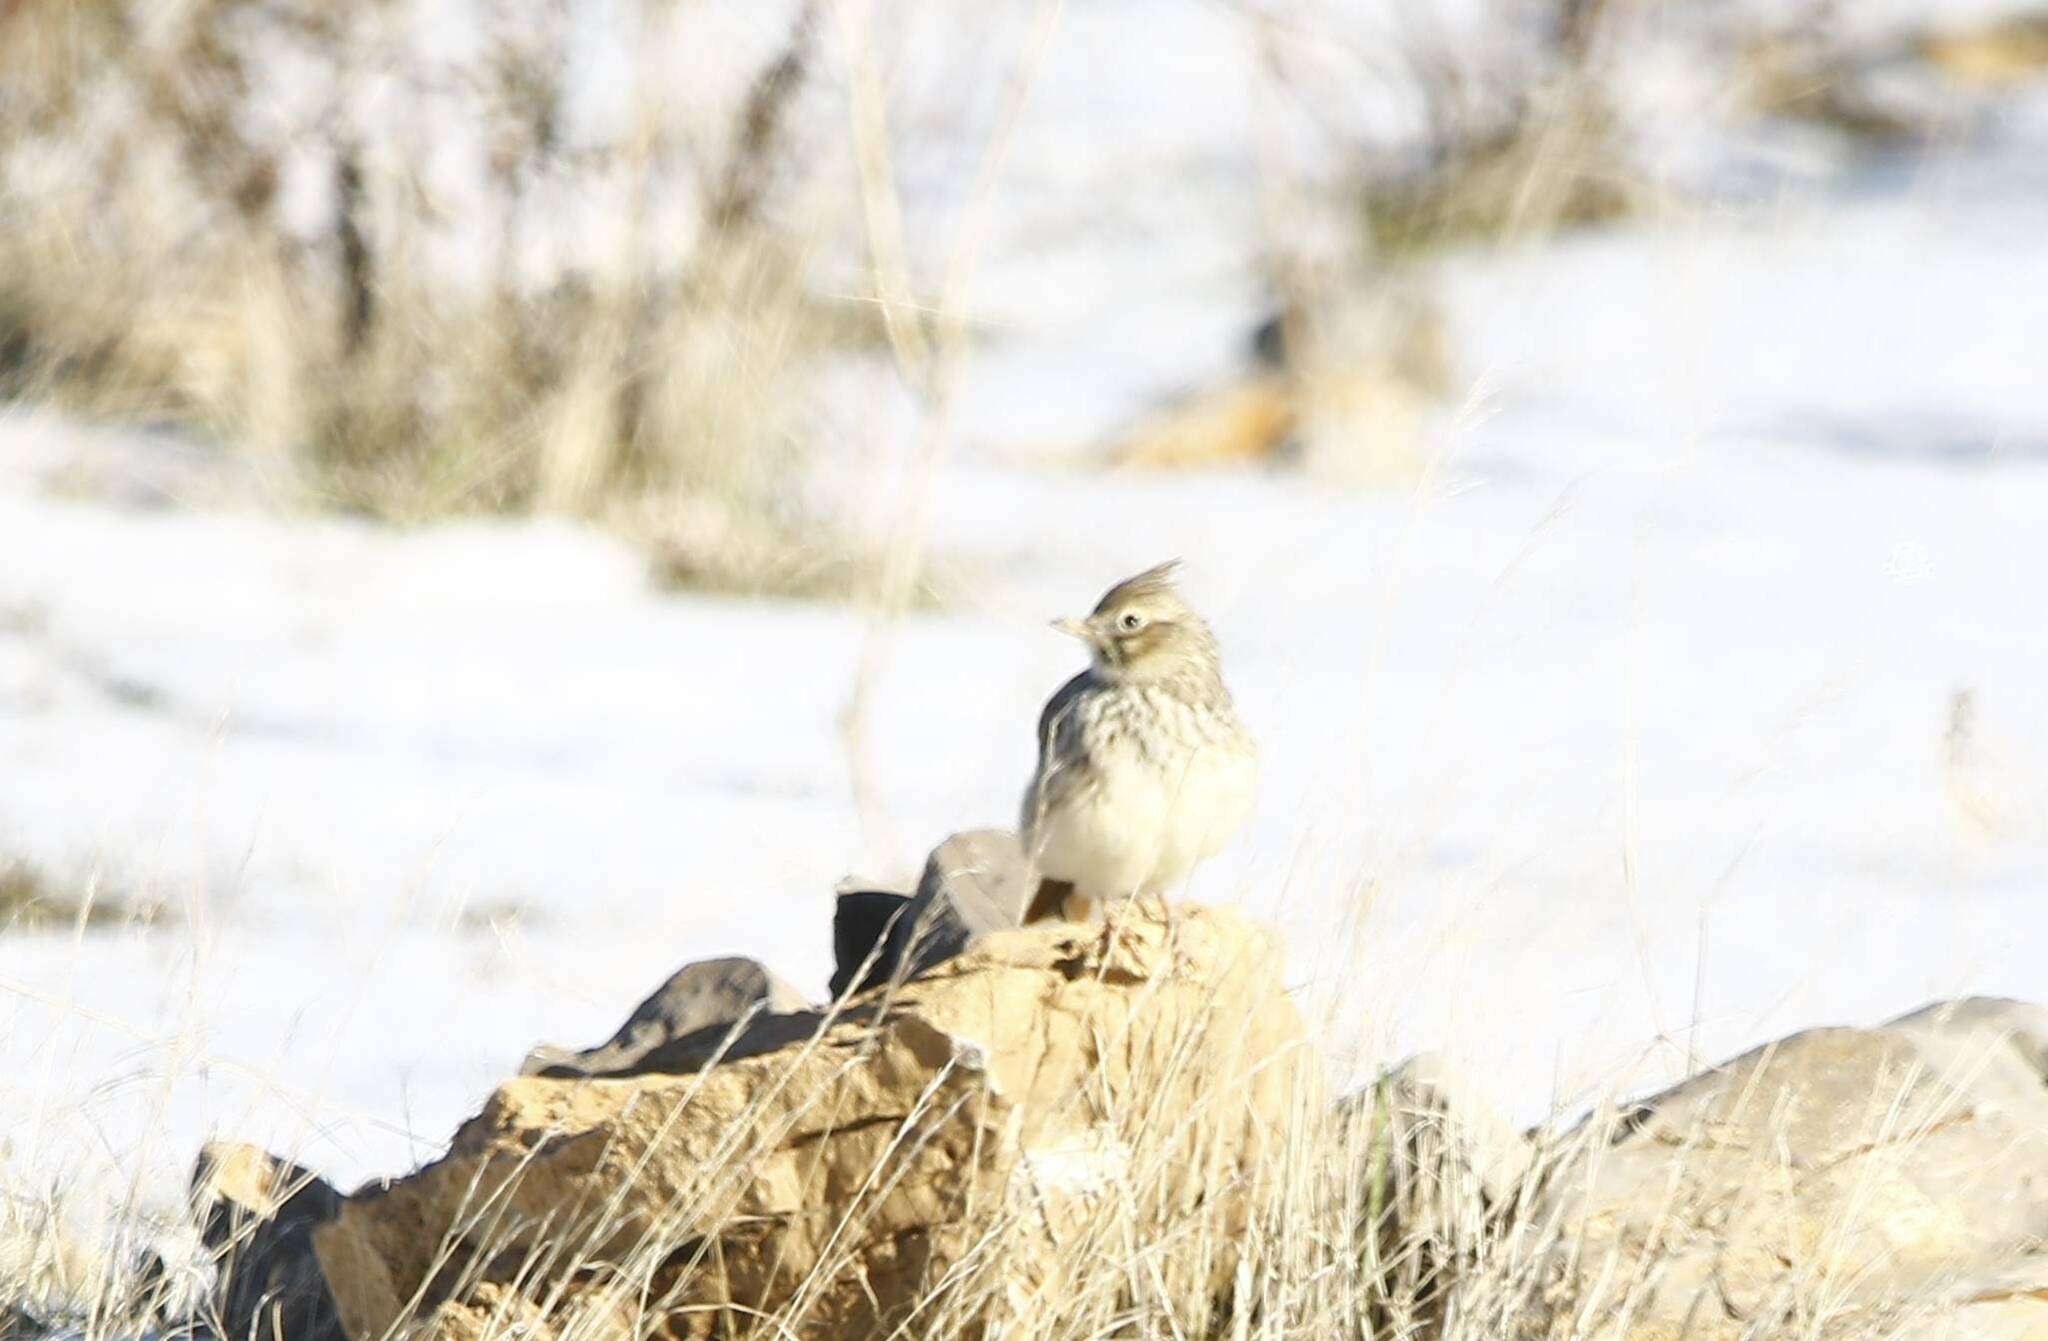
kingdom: Animalia
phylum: Chordata
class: Aves
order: Passeriformes
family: Alaudidae
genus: Galerida
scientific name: Galerida theklae
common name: Thekla lark
